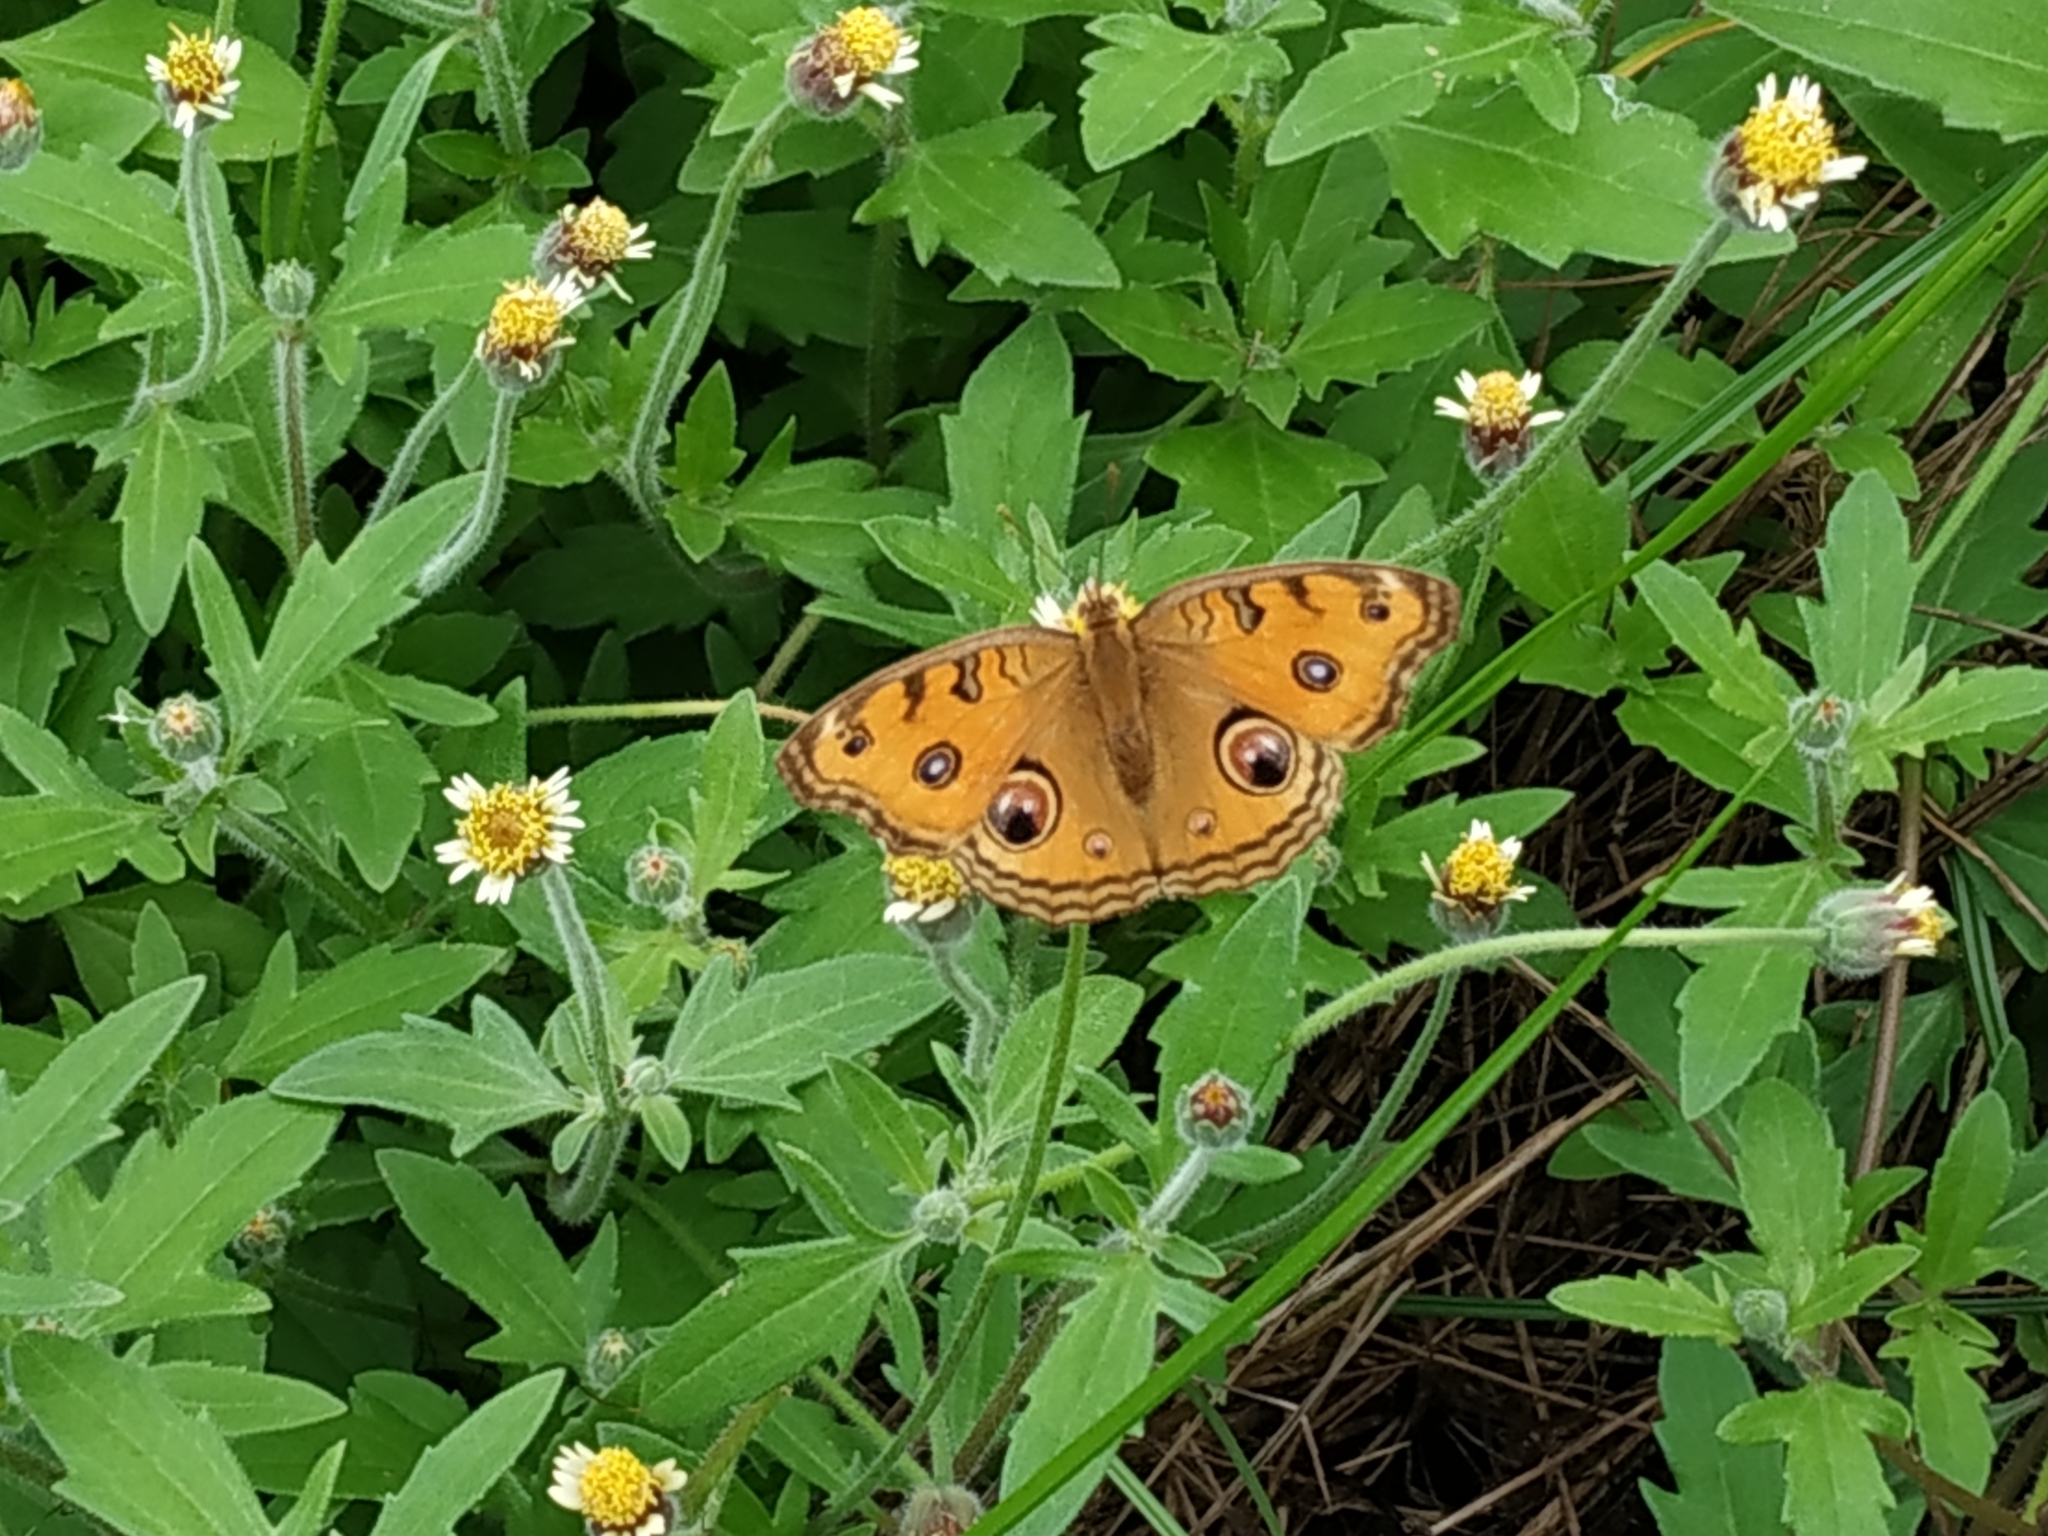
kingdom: Animalia
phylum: Arthropoda
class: Insecta
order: Lepidoptera
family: Nymphalidae
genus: Junonia
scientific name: Junonia almana
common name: Peacock pansy
